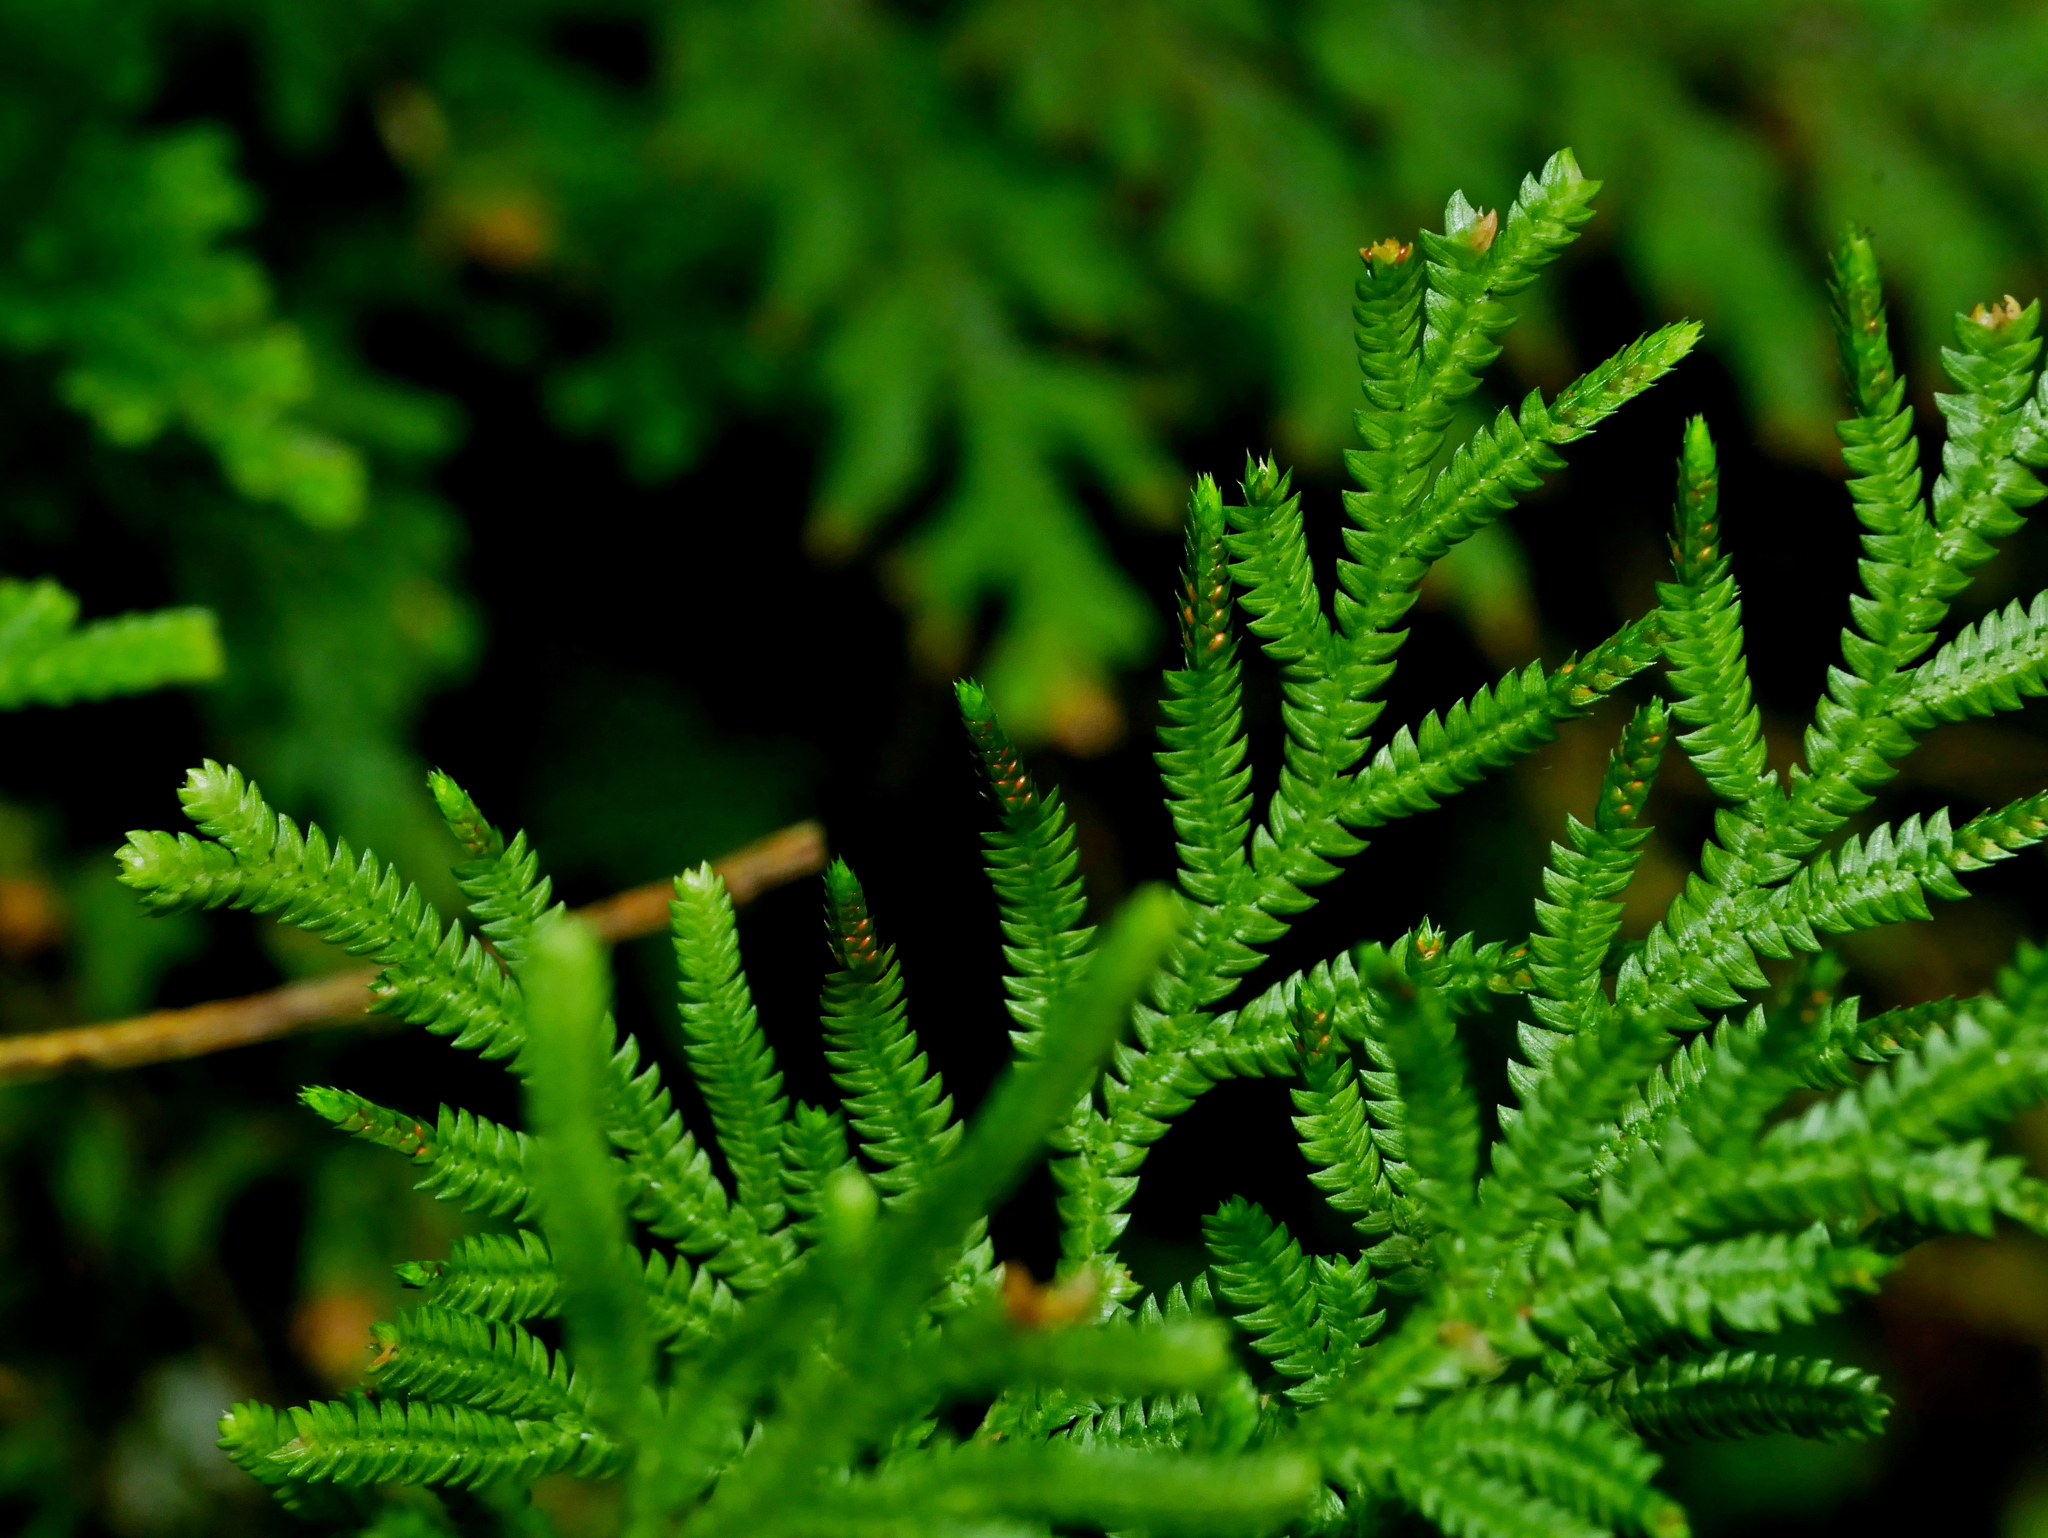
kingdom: Plantae
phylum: Tracheophyta
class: Lycopodiopsida
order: Selaginellales
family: Selaginellaceae
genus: Selaginella
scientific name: Selaginella moellendorffii
